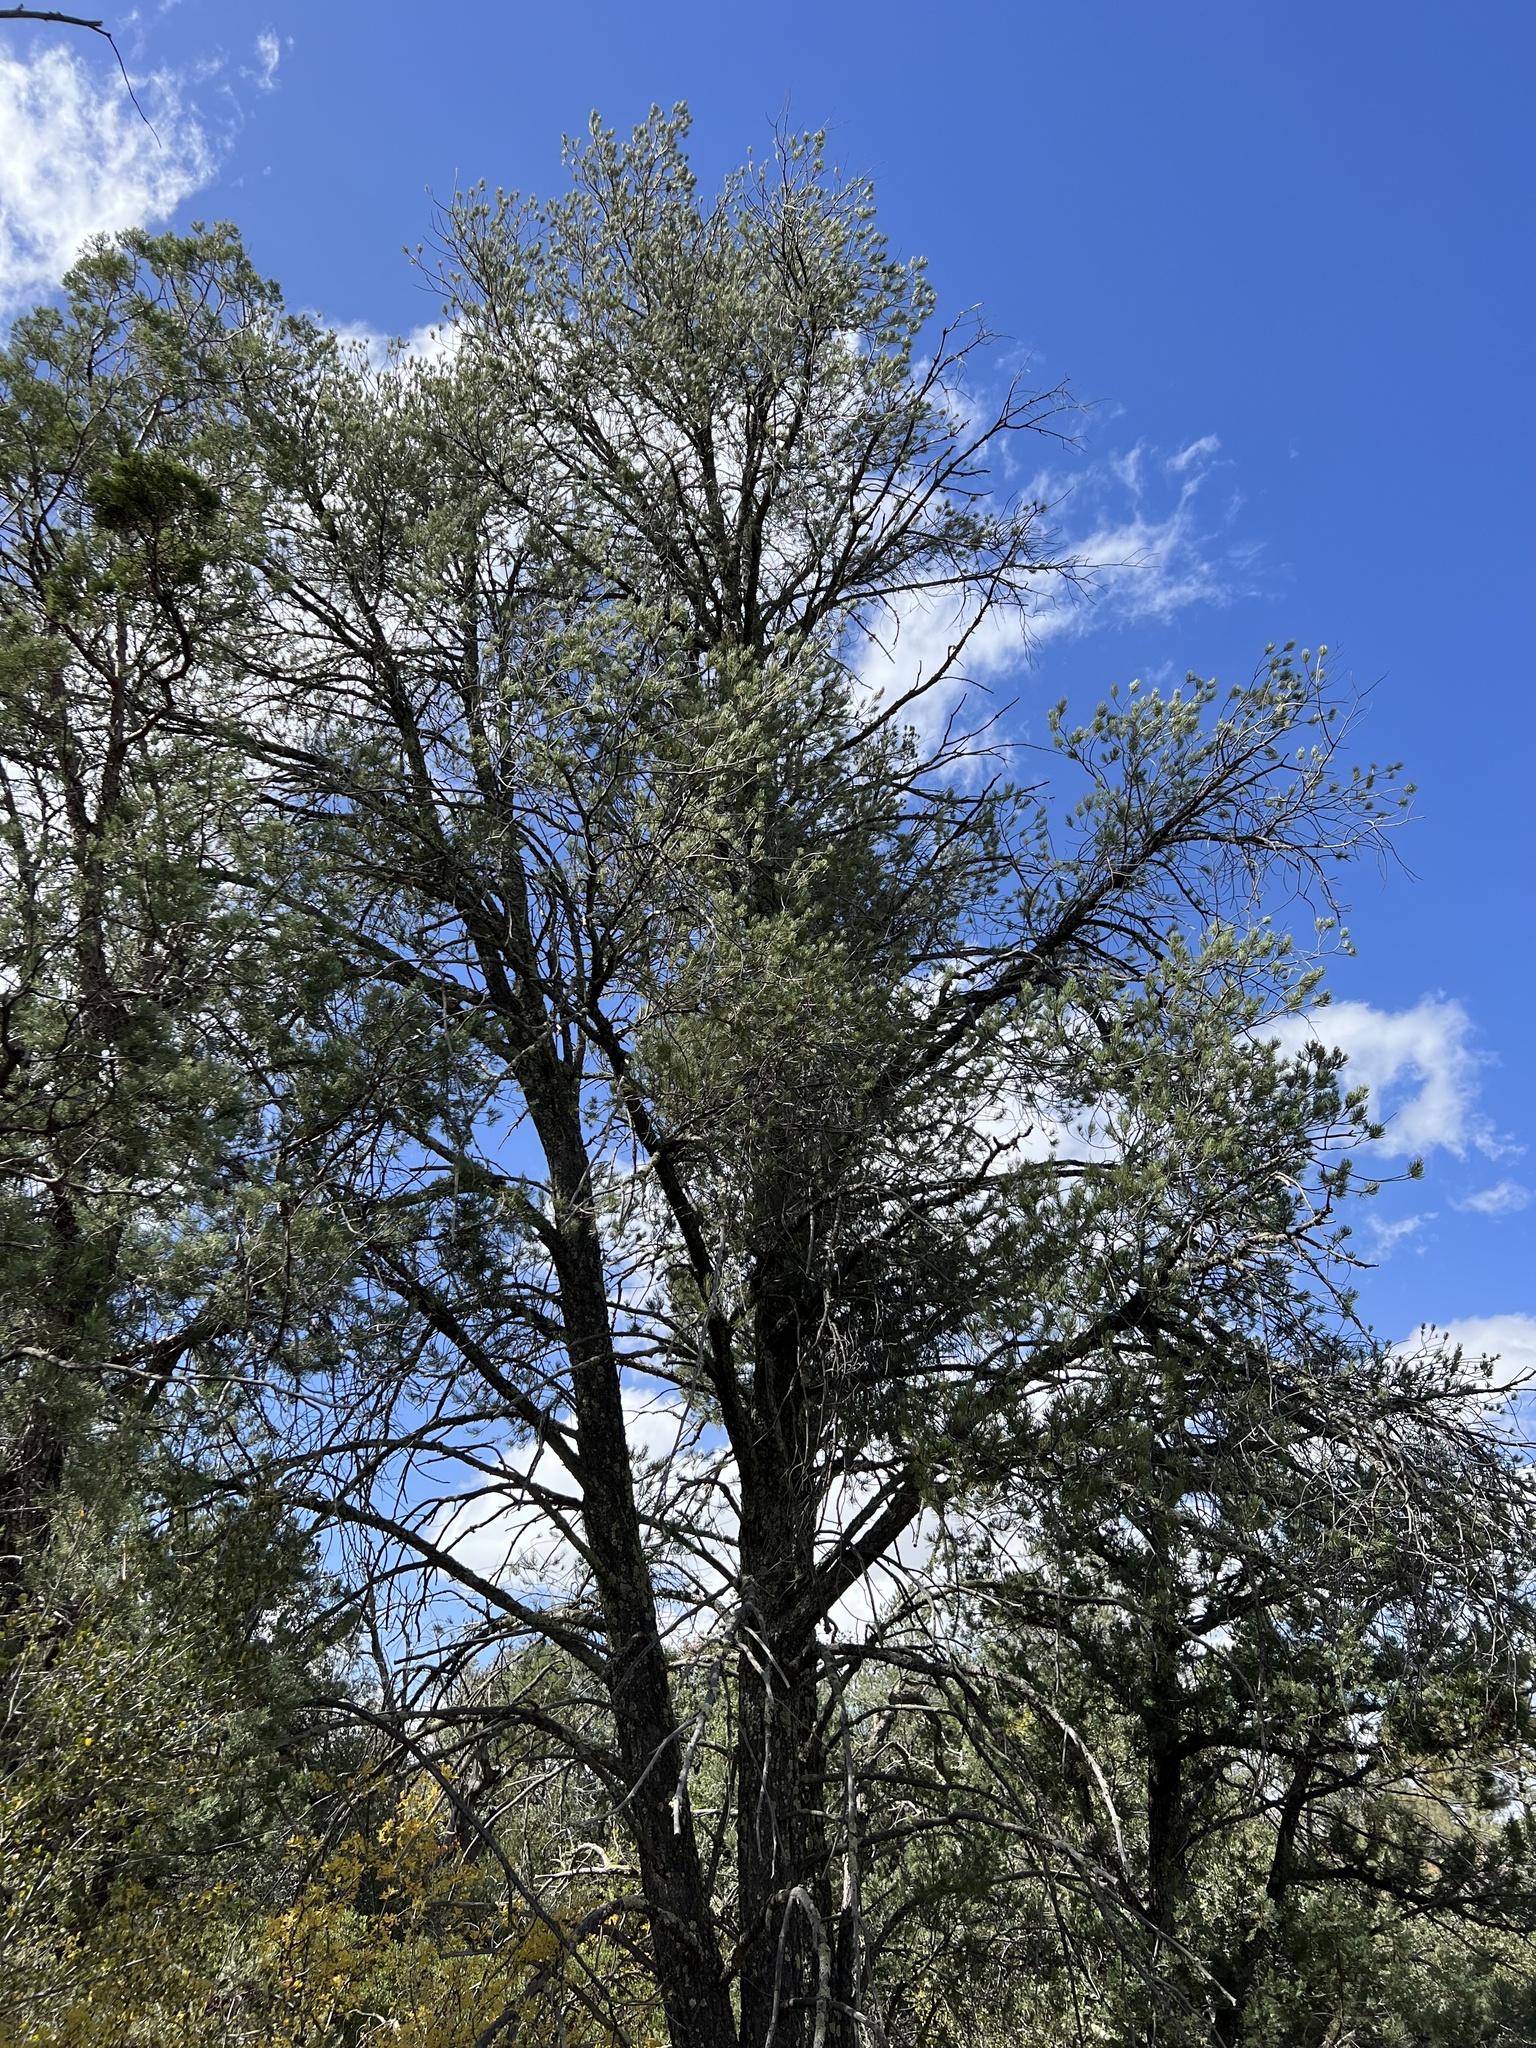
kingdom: Plantae
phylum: Tracheophyta
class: Pinopsida
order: Pinales
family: Pinaceae
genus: Pinus
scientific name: Pinus monophylla
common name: One-leaved nut pine
